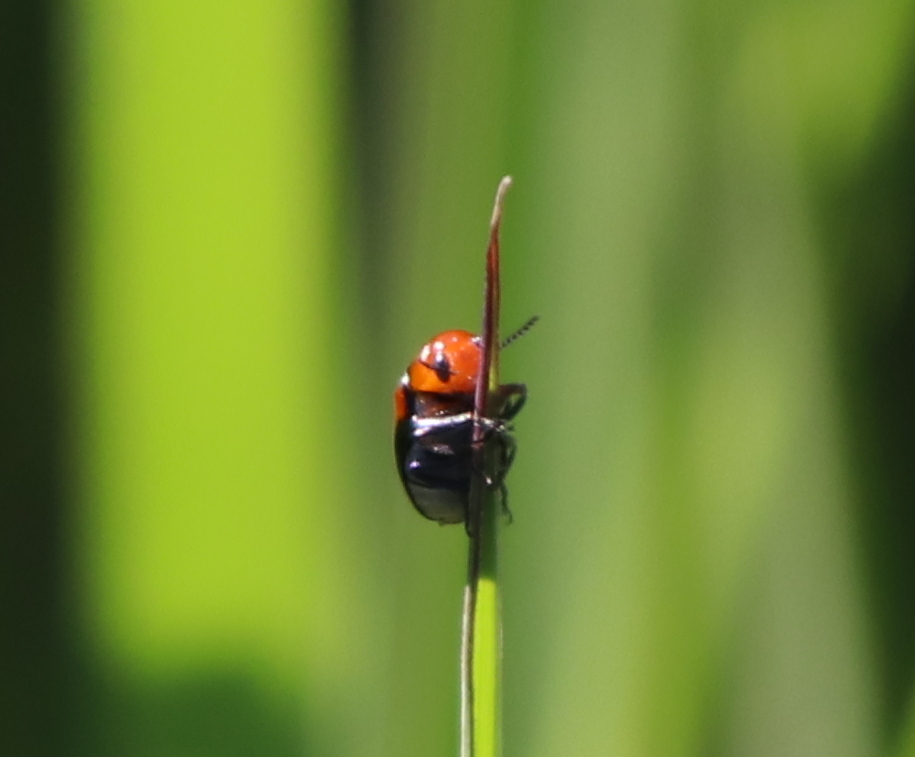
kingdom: Animalia
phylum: Arthropoda
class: Insecta
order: Coleoptera
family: Chrysomelidae
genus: Anomoea
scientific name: Anomoea laticlavia
